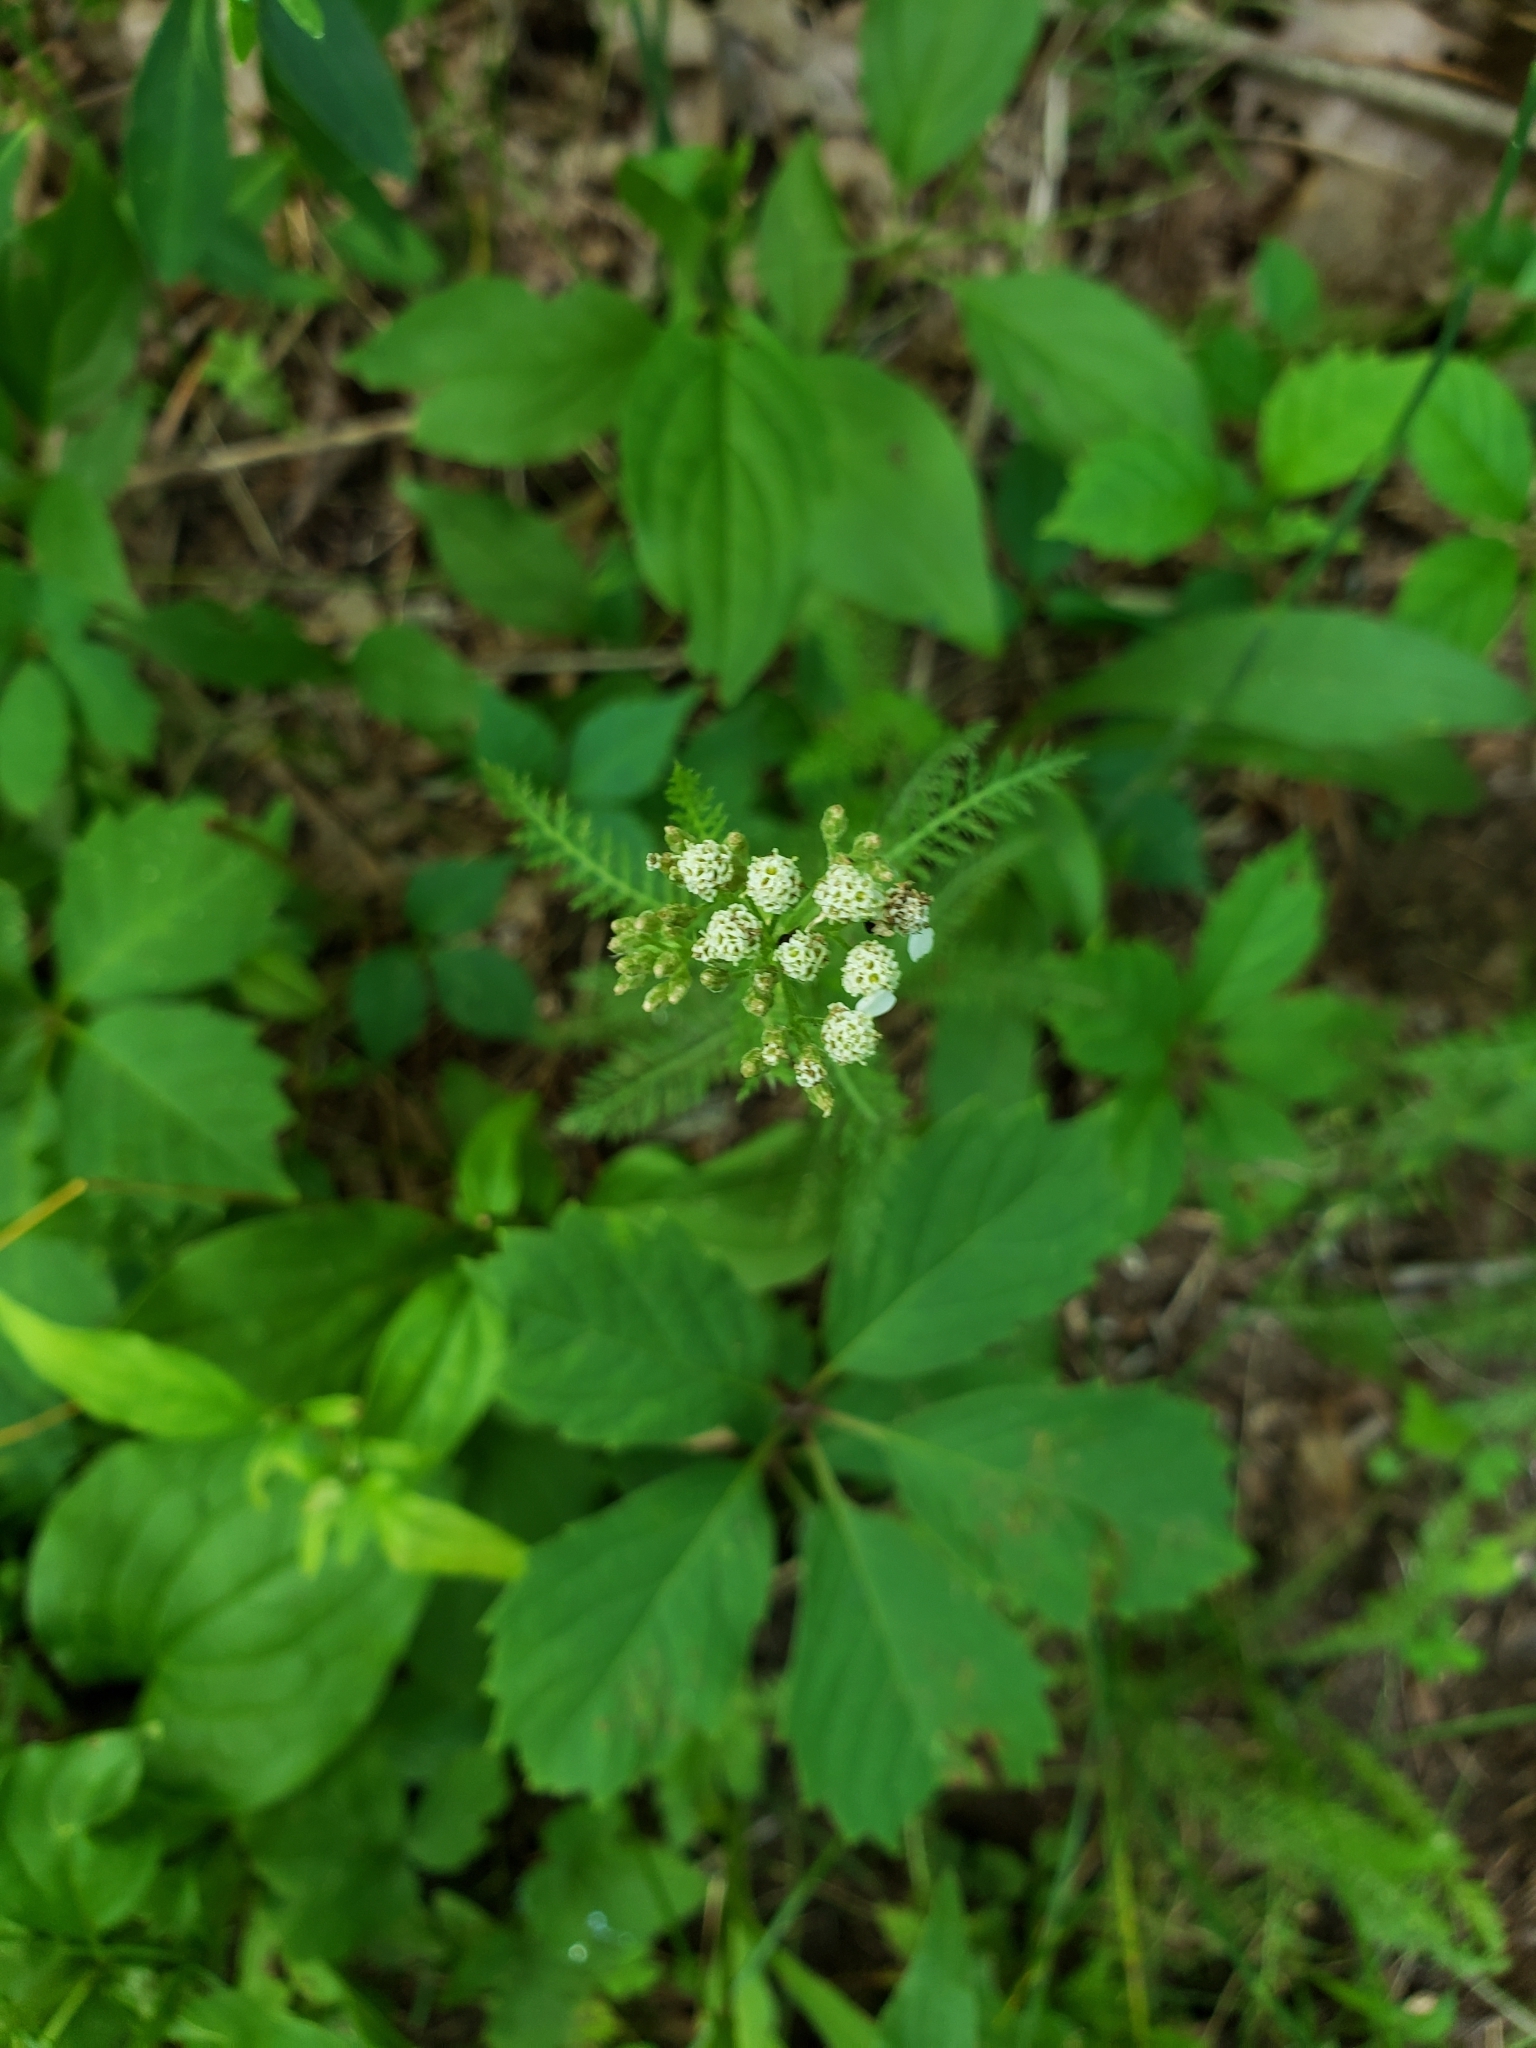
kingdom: Plantae
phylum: Tracheophyta
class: Magnoliopsida
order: Asterales
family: Asteraceae
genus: Achillea
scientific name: Achillea millefolium
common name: Yarrow
